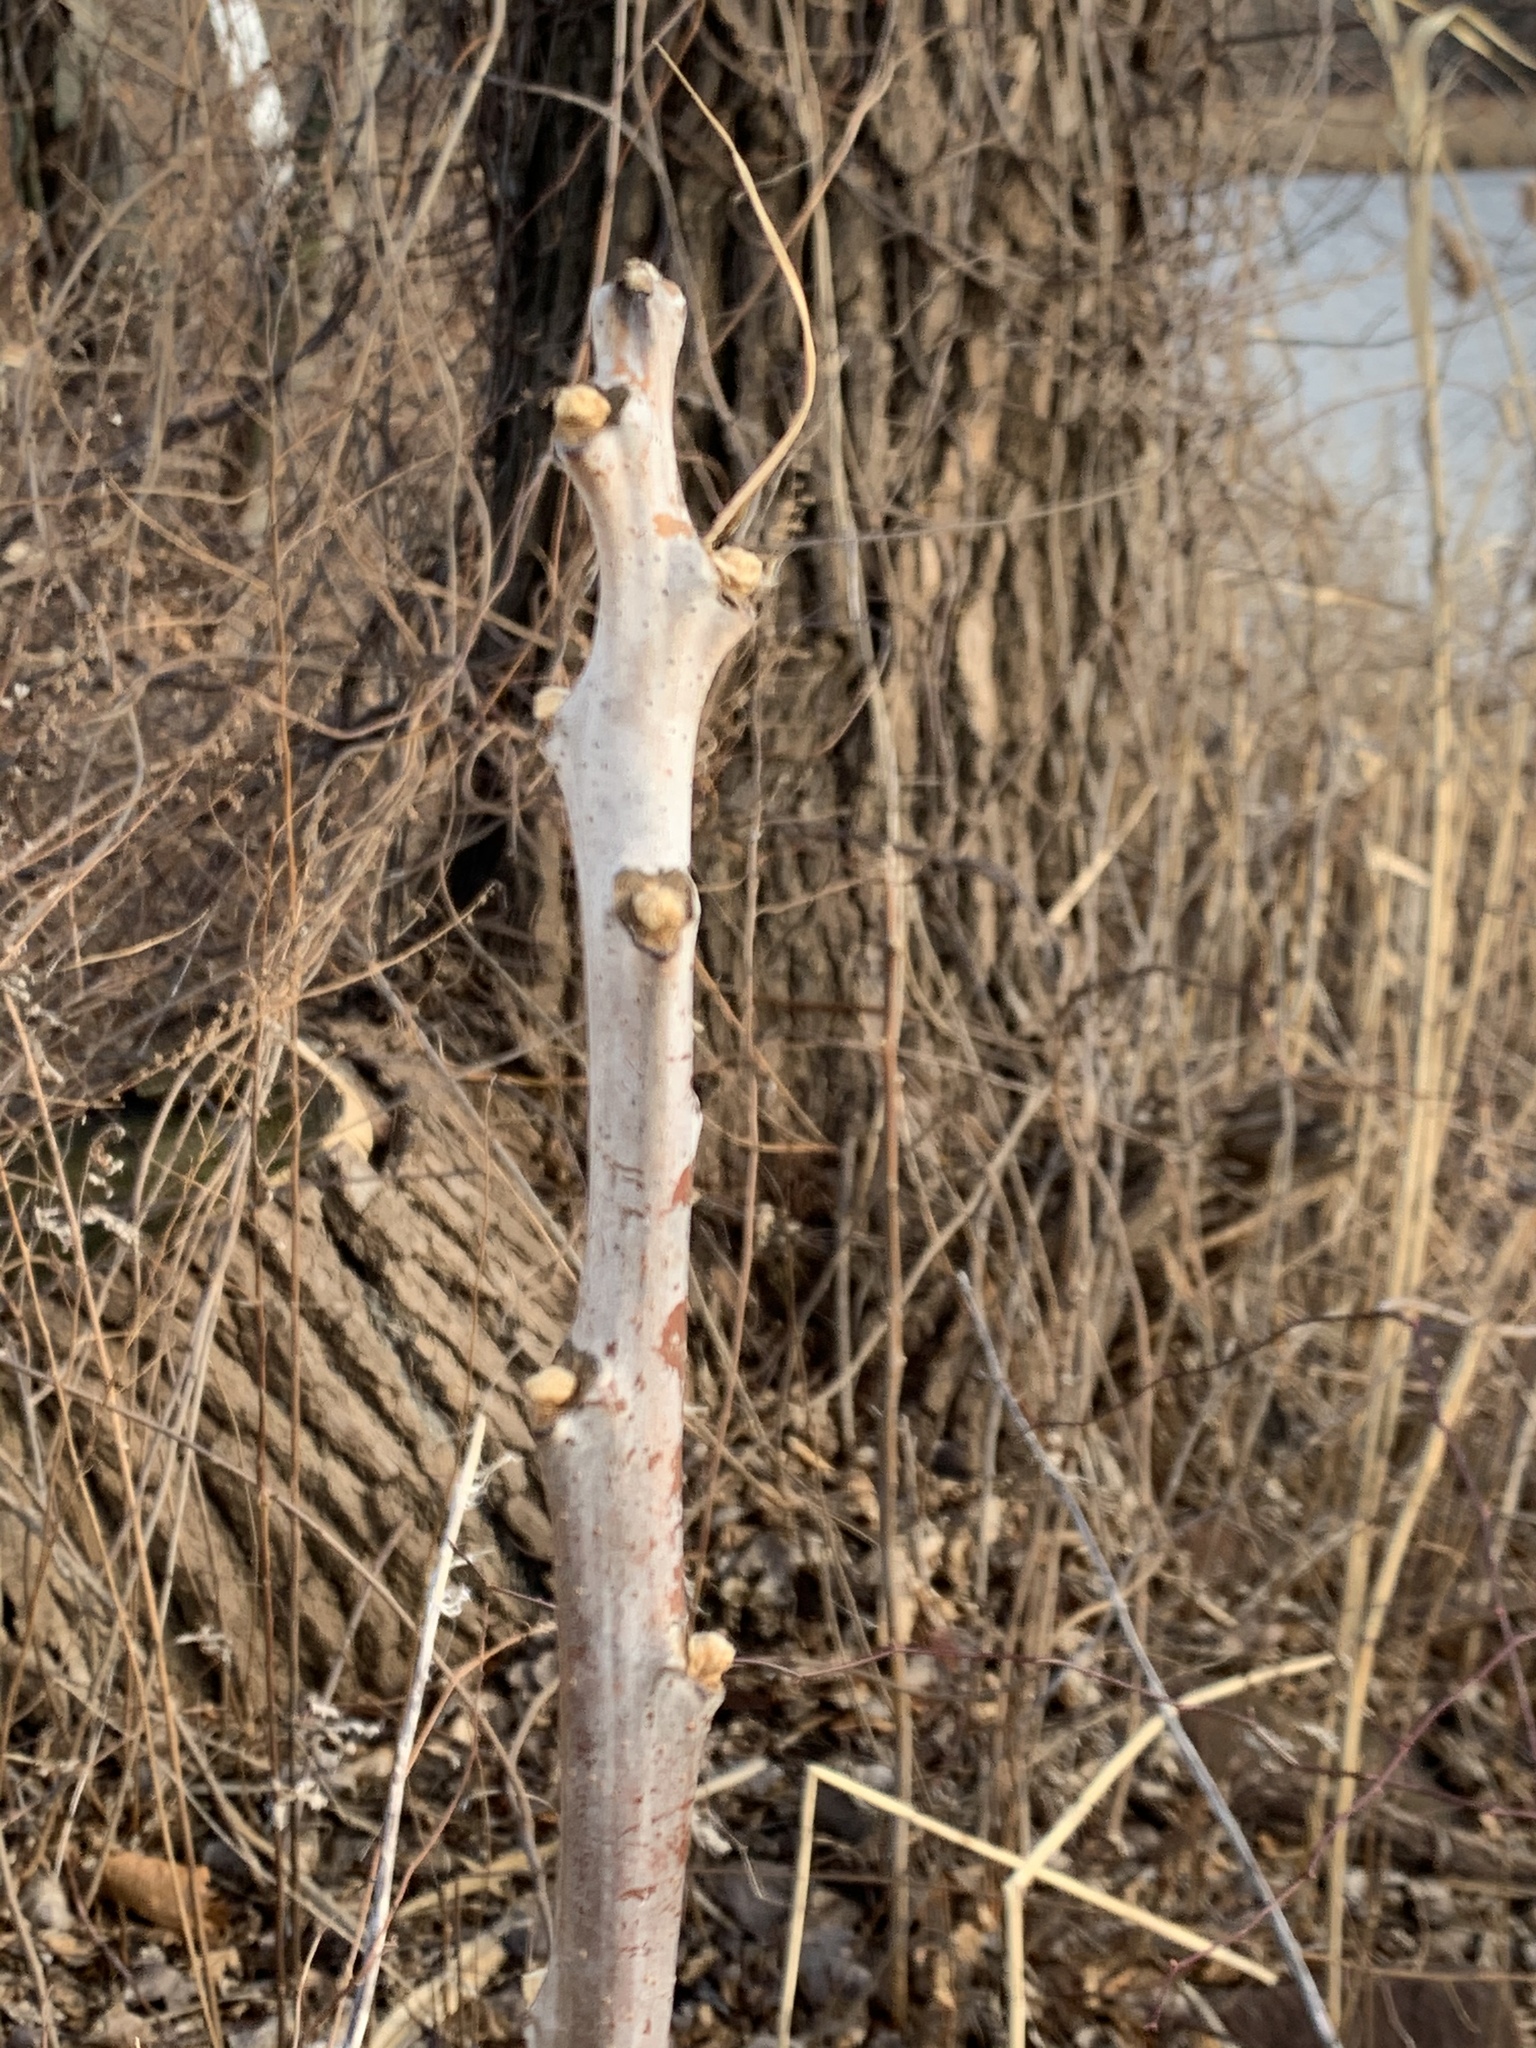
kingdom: Plantae
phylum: Tracheophyta
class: Magnoliopsida
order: Sapindales
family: Anacardiaceae
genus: Rhus
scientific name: Rhus glabra
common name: Scarlet sumac
